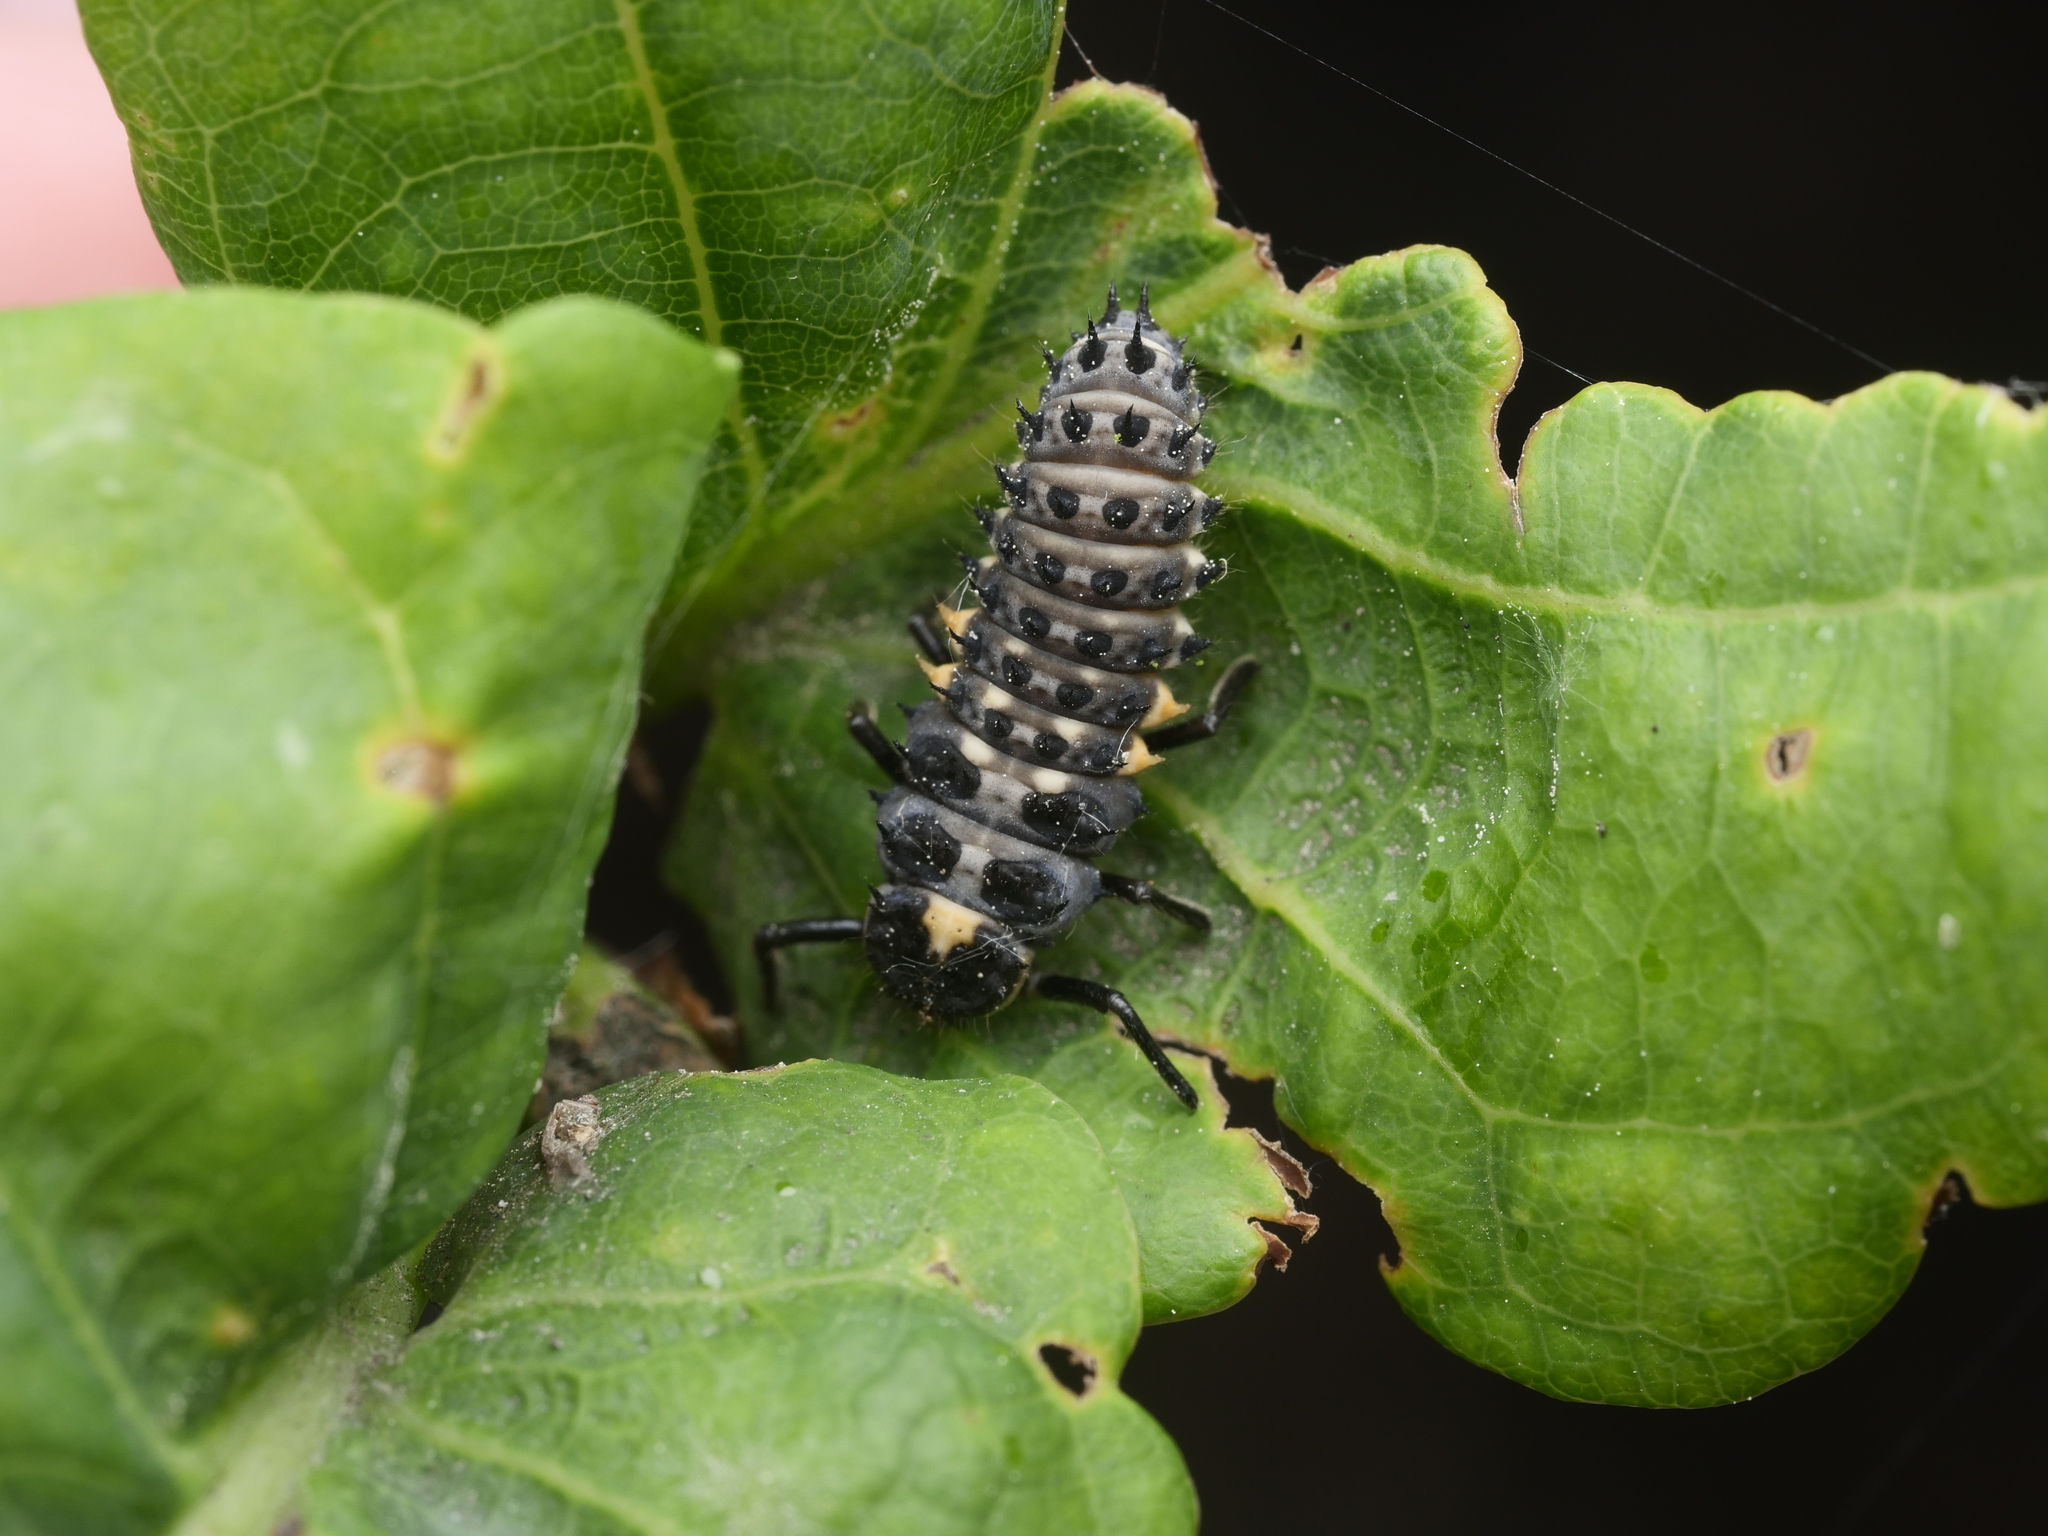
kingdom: Animalia
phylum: Arthropoda
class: Insecta
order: Coleoptera
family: Coccinellidae
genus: Anatis
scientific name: Anatis ocellata
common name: Eyed ladybird
